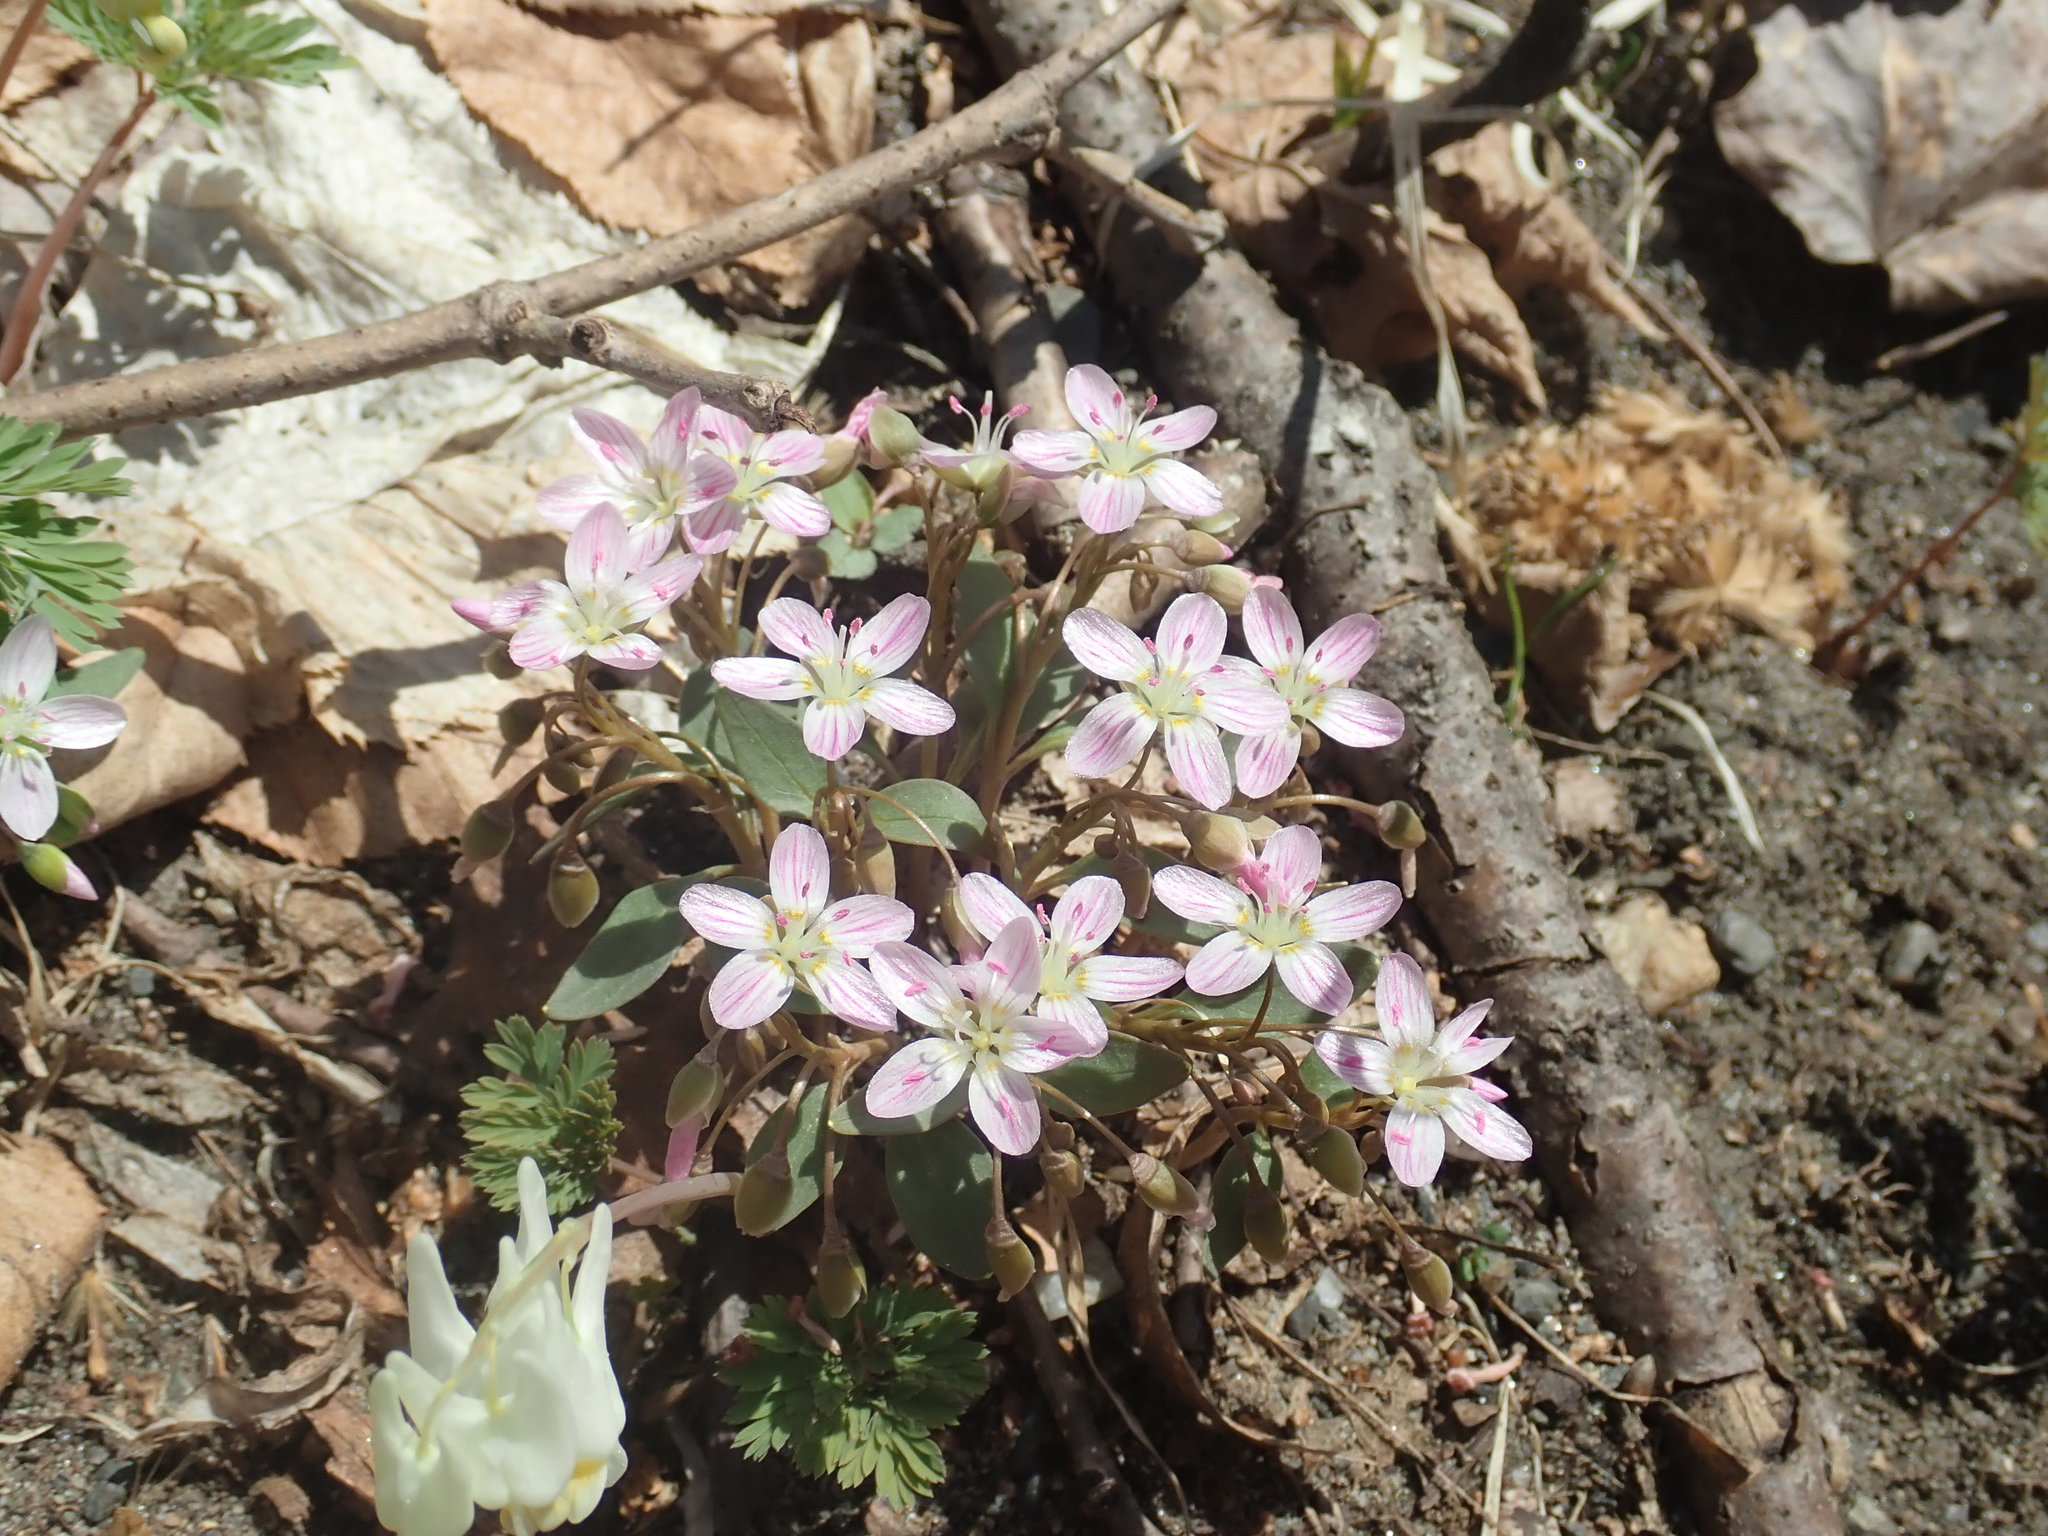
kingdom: Plantae
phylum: Tracheophyta
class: Magnoliopsida
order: Caryophyllales
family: Montiaceae
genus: Claytonia
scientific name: Claytonia caroliniana
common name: Carolina spring beauty
